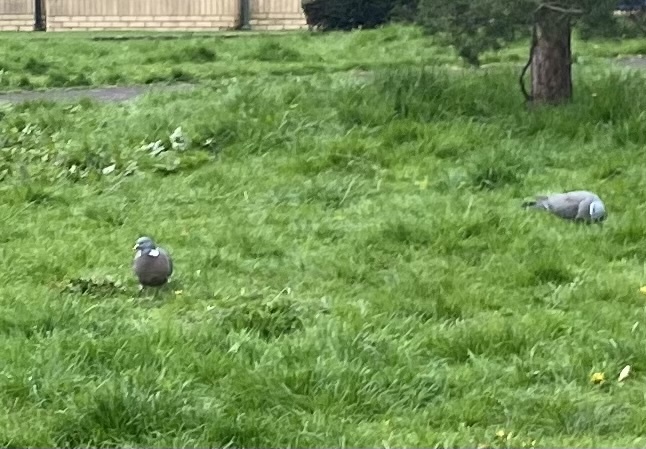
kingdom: Animalia
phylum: Chordata
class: Aves
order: Columbiformes
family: Columbidae
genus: Columba
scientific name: Columba palumbus
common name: Common wood pigeon
